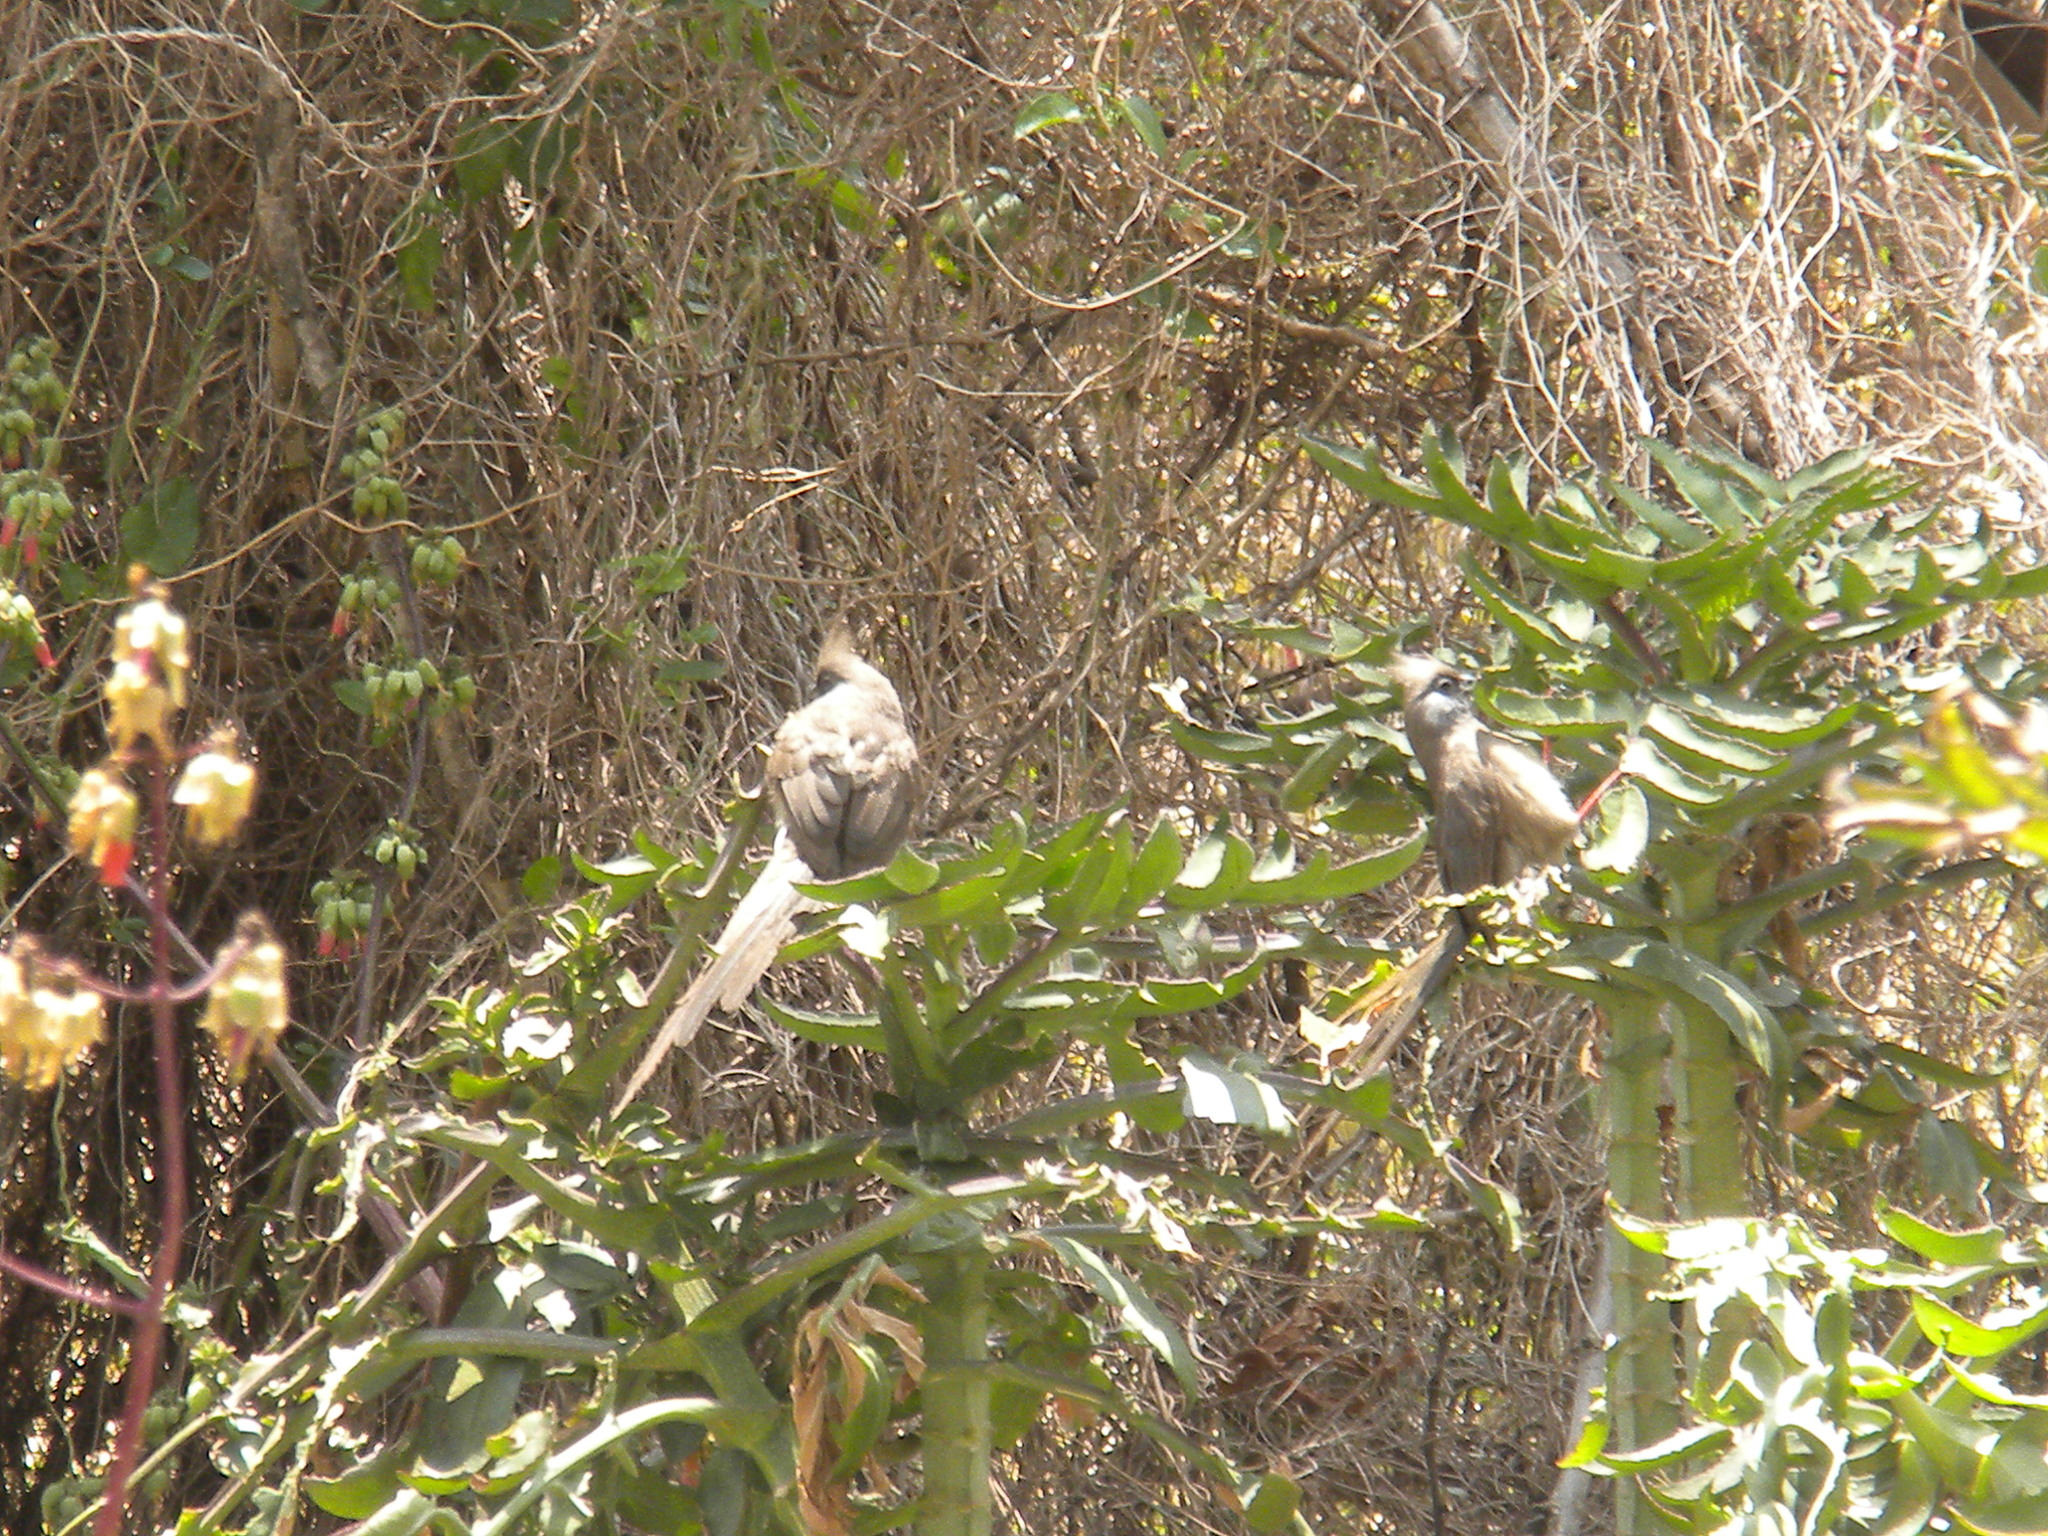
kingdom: Animalia
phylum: Chordata
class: Aves
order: Coliiformes
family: Coliidae
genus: Colius
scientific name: Colius striatus
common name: Speckled mousebird
